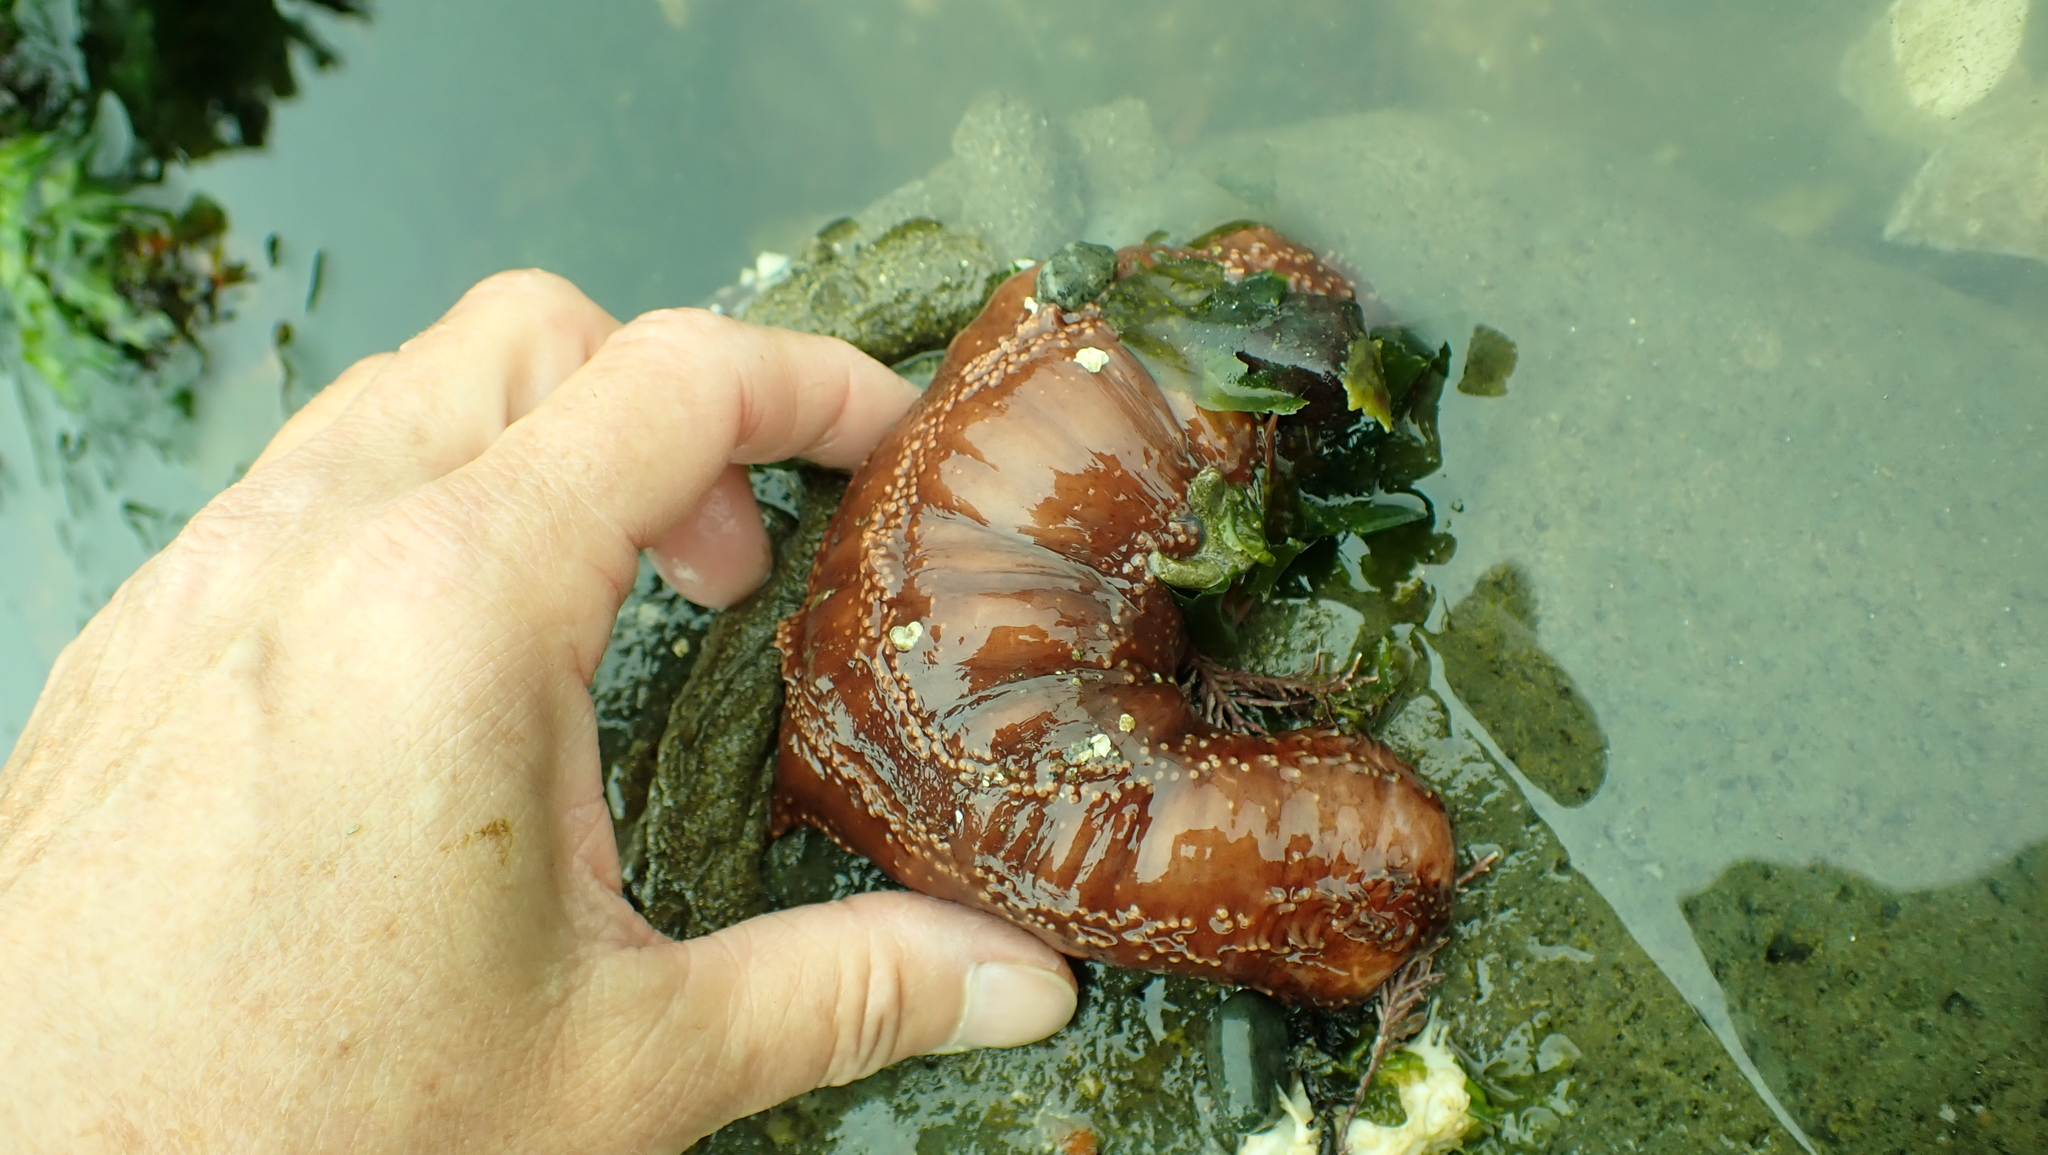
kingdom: Animalia
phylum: Echinodermata
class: Holothuroidea
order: Dendrochirotida
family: Cucumariidae
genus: Cucumaria
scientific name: Cucumaria miniata
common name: Orange sea cucumber
